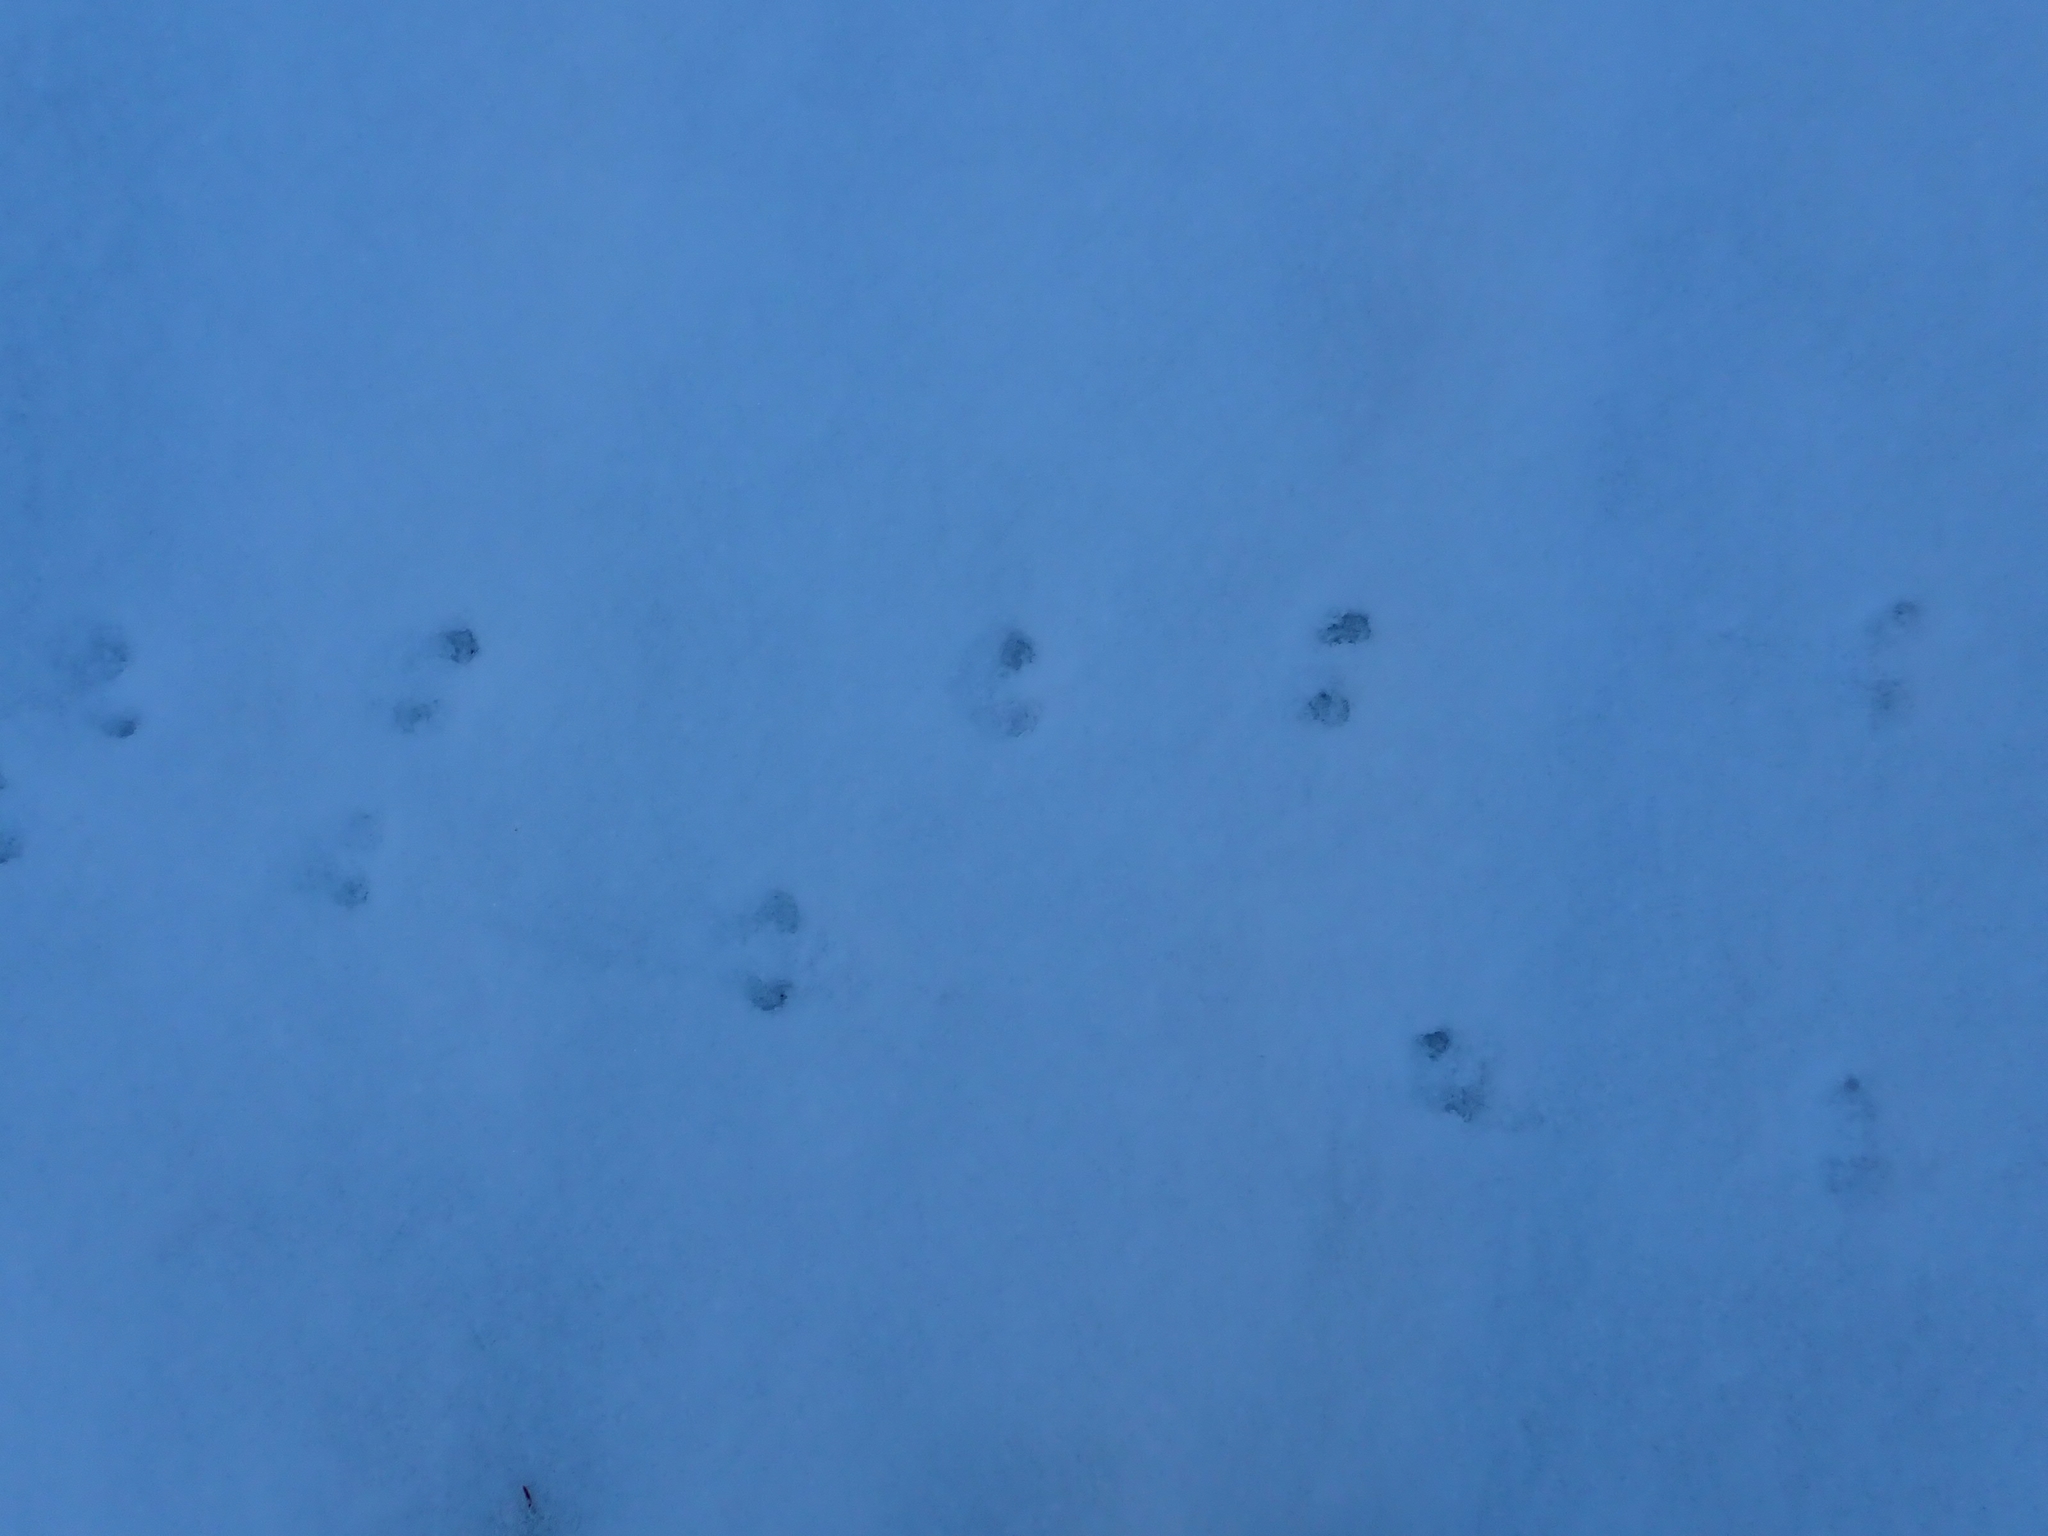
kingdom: Animalia
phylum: Chordata
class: Mammalia
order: Rodentia
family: Cricetidae
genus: Peromyscus
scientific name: Peromyscus maniculatus
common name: Deer mouse
